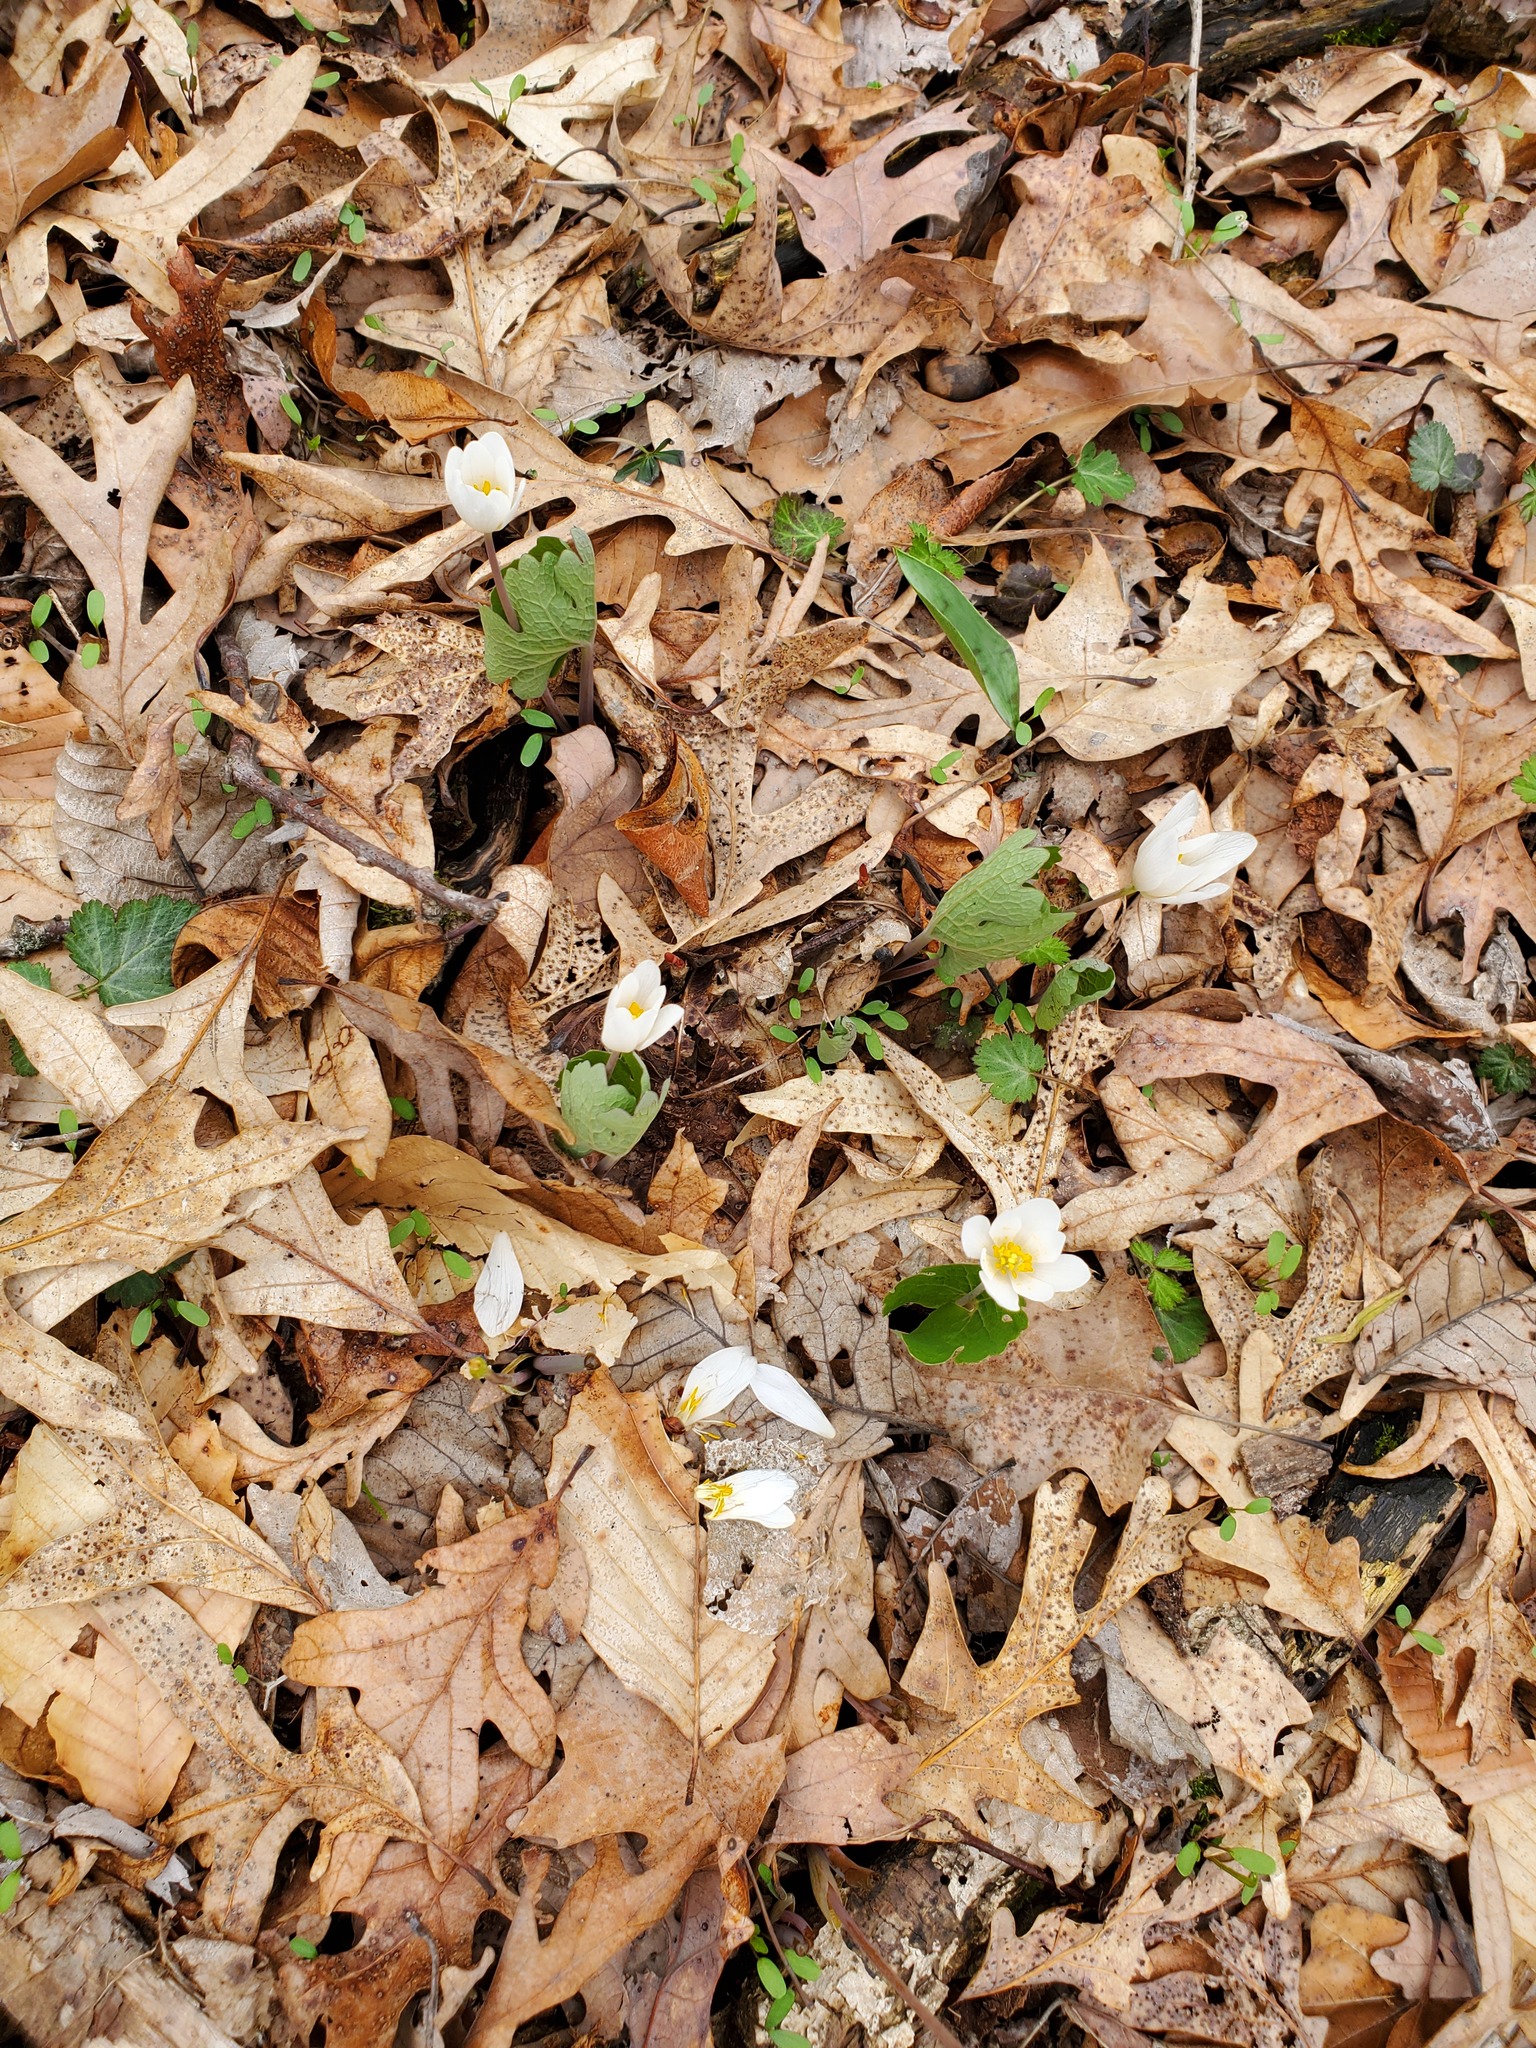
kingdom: Plantae
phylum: Tracheophyta
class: Magnoliopsida
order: Ranunculales
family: Papaveraceae
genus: Sanguinaria
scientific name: Sanguinaria canadensis
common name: Bloodroot
